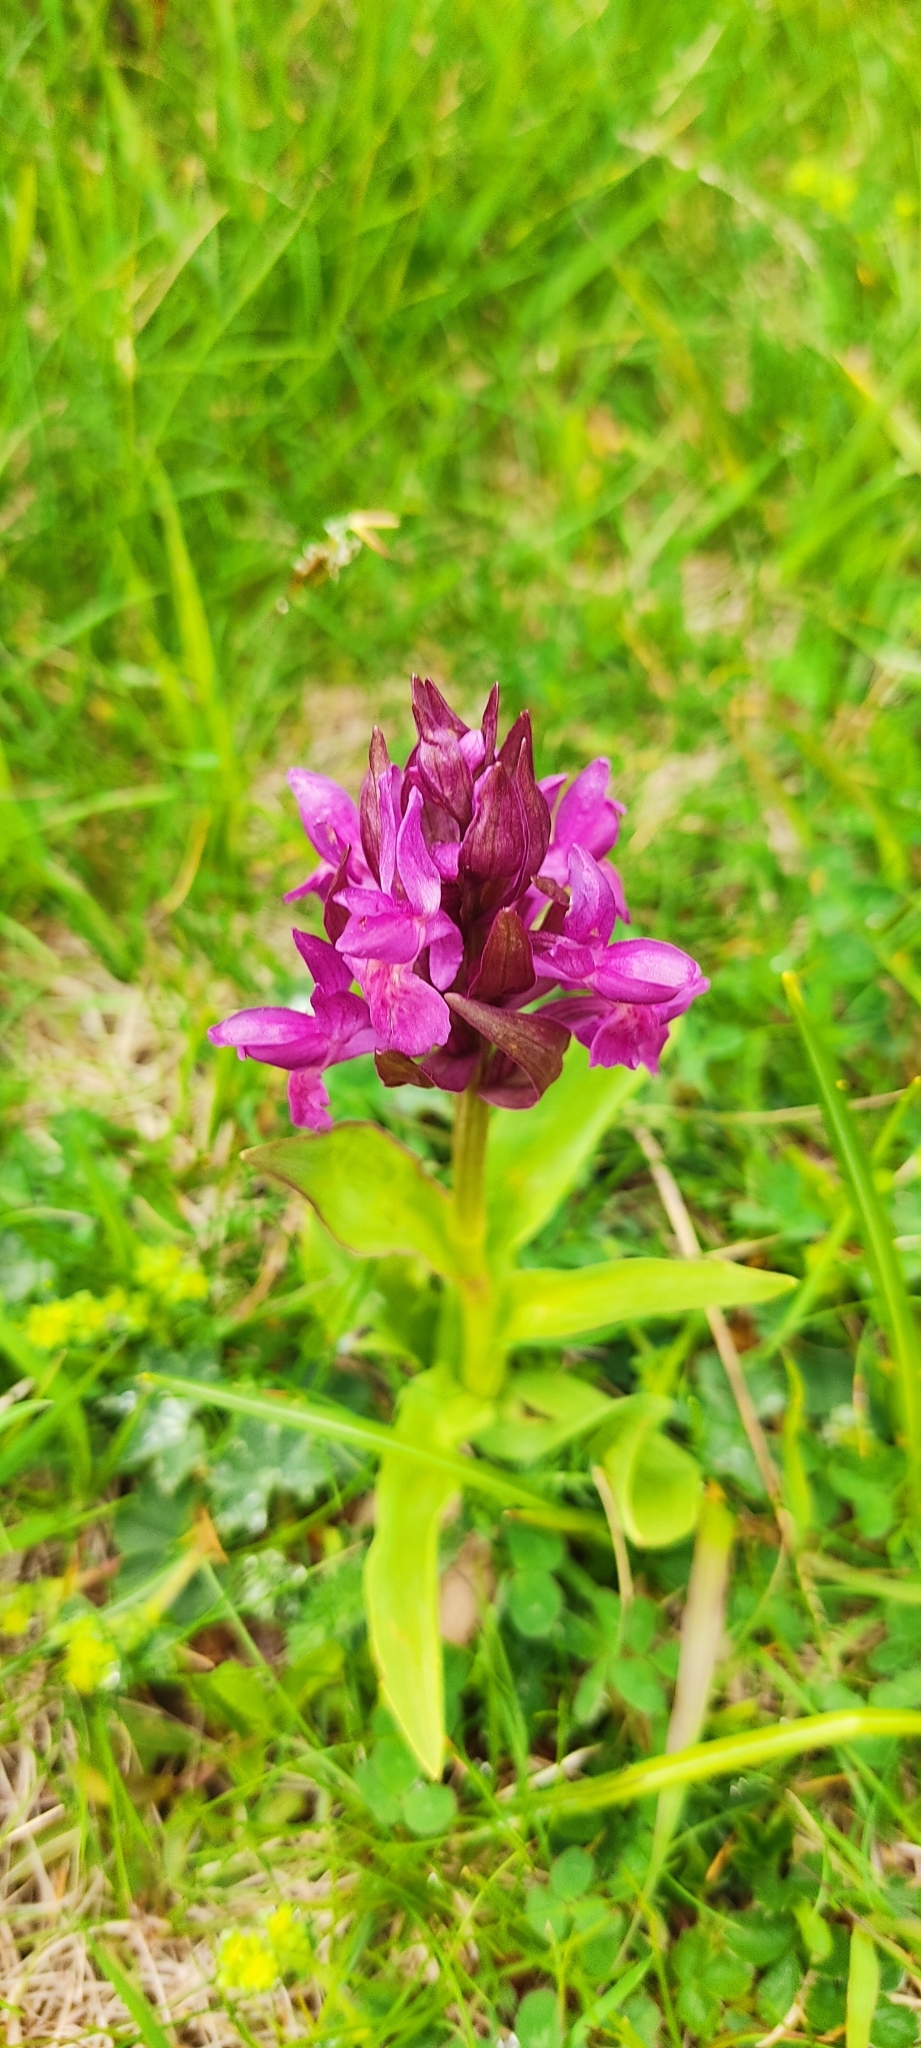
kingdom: Plantae
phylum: Tracheophyta
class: Liliopsida
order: Asparagales
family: Orchidaceae
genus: Dactylorhiza
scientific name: Dactylorhiza sambucina
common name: Elder-flowered orchid
